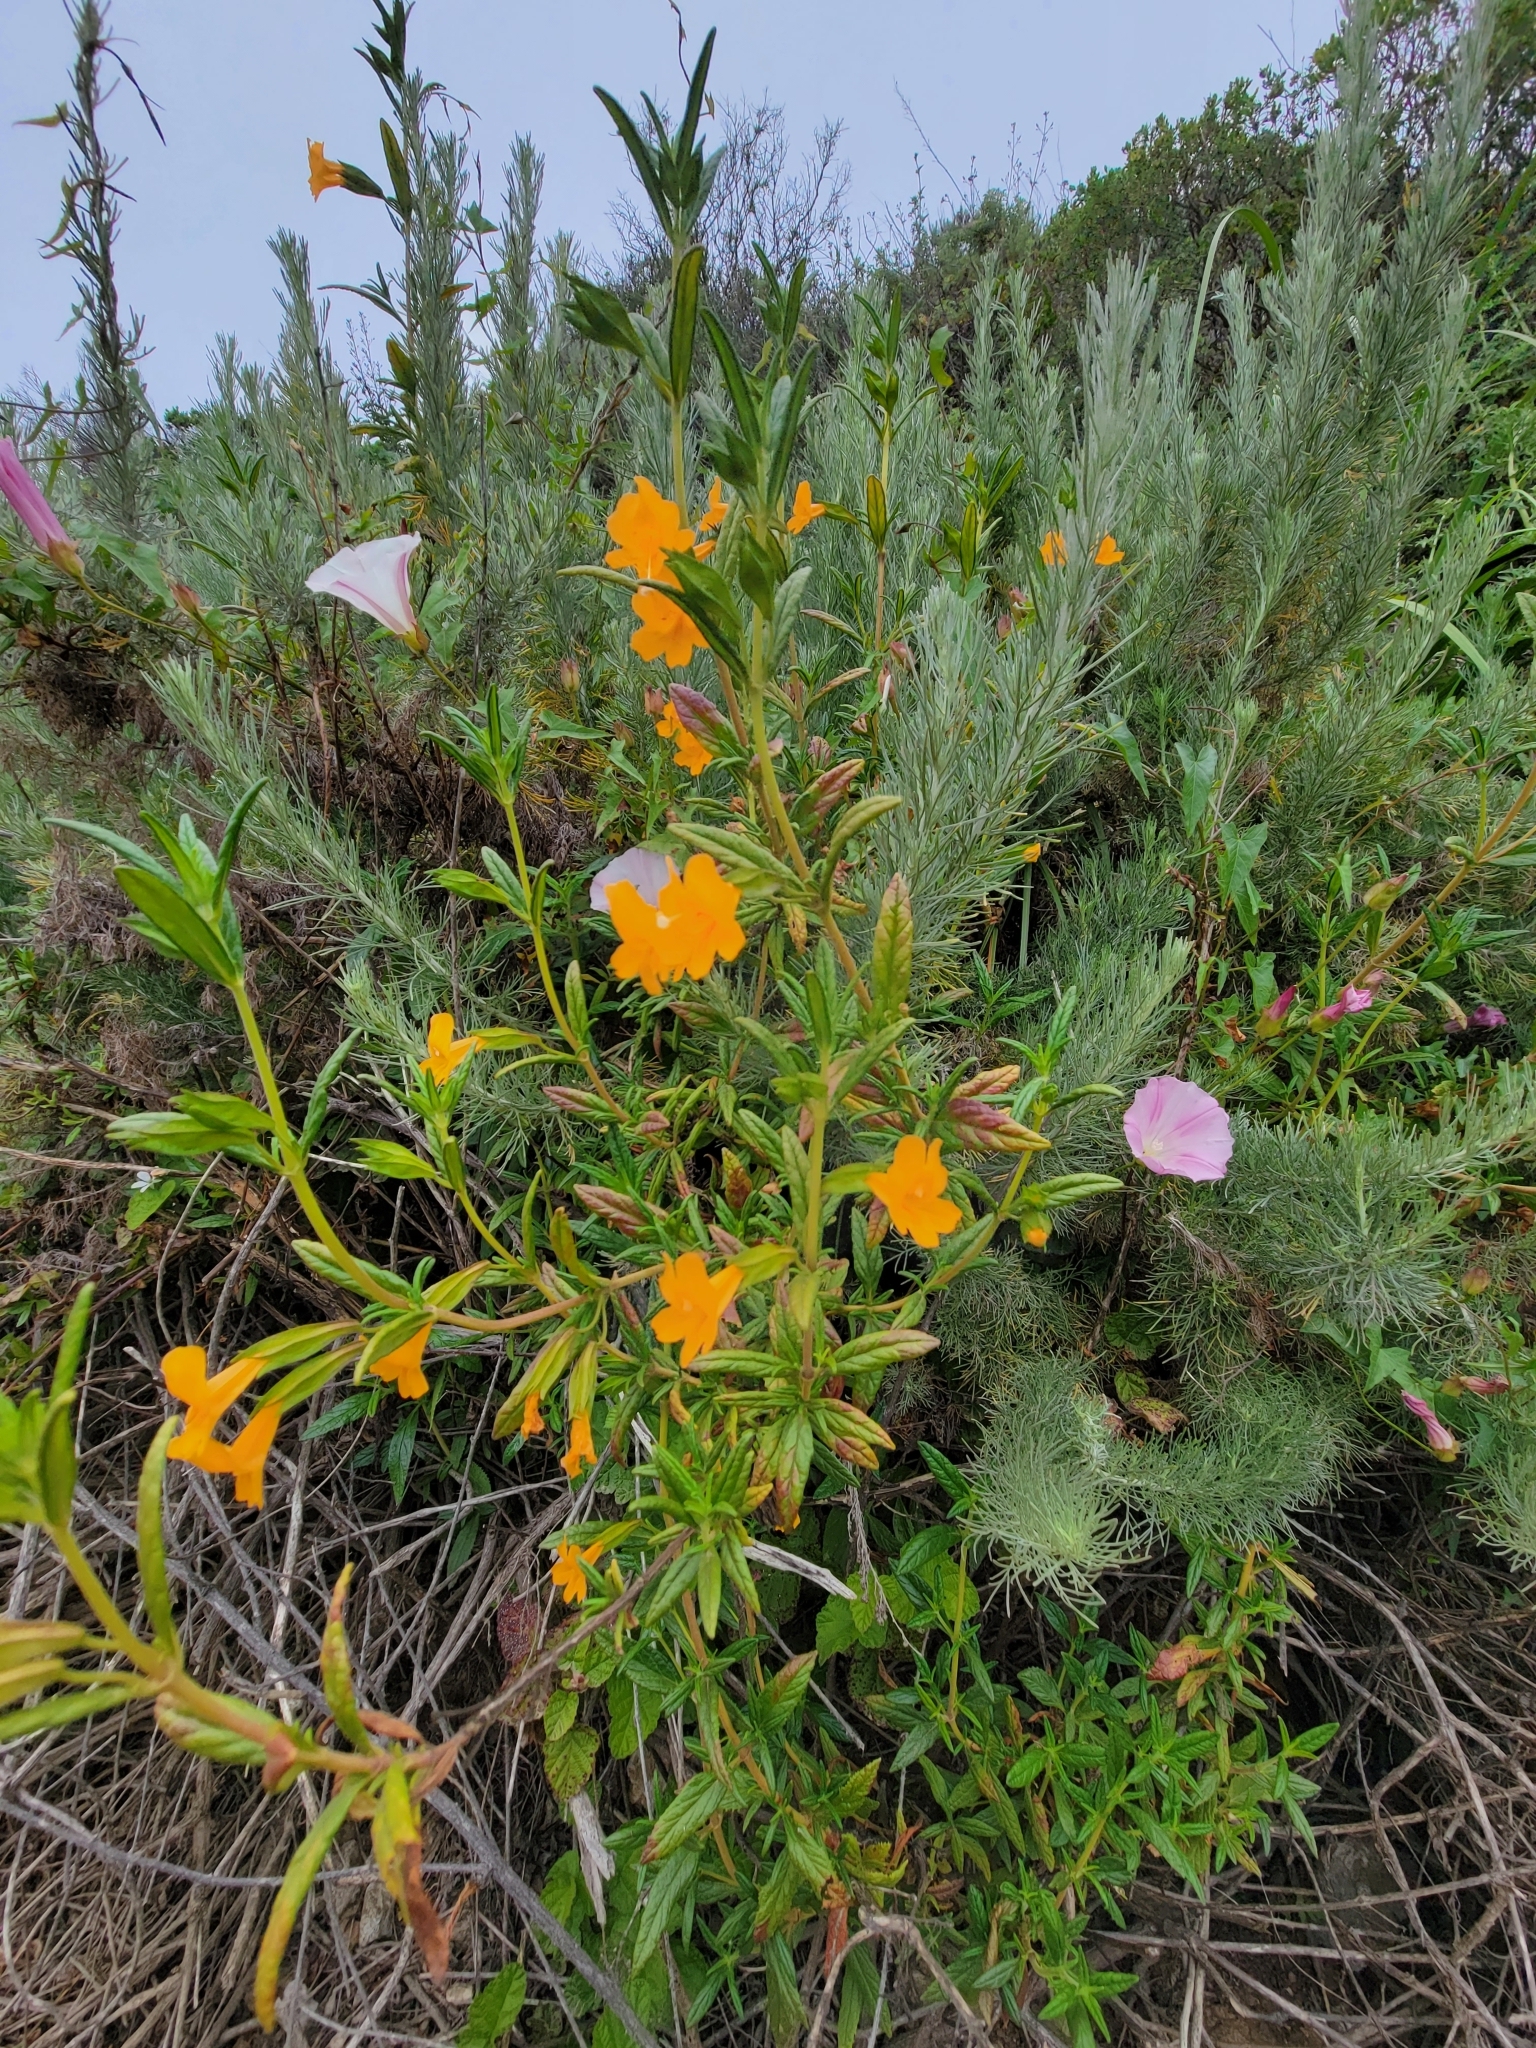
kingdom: Plantae
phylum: Tracheophyta
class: Magnoliopsida
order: Lamiales
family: Phrymaceae
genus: Diplacus
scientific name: Diplacus aurantiacus
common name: Bush monkey-flower
